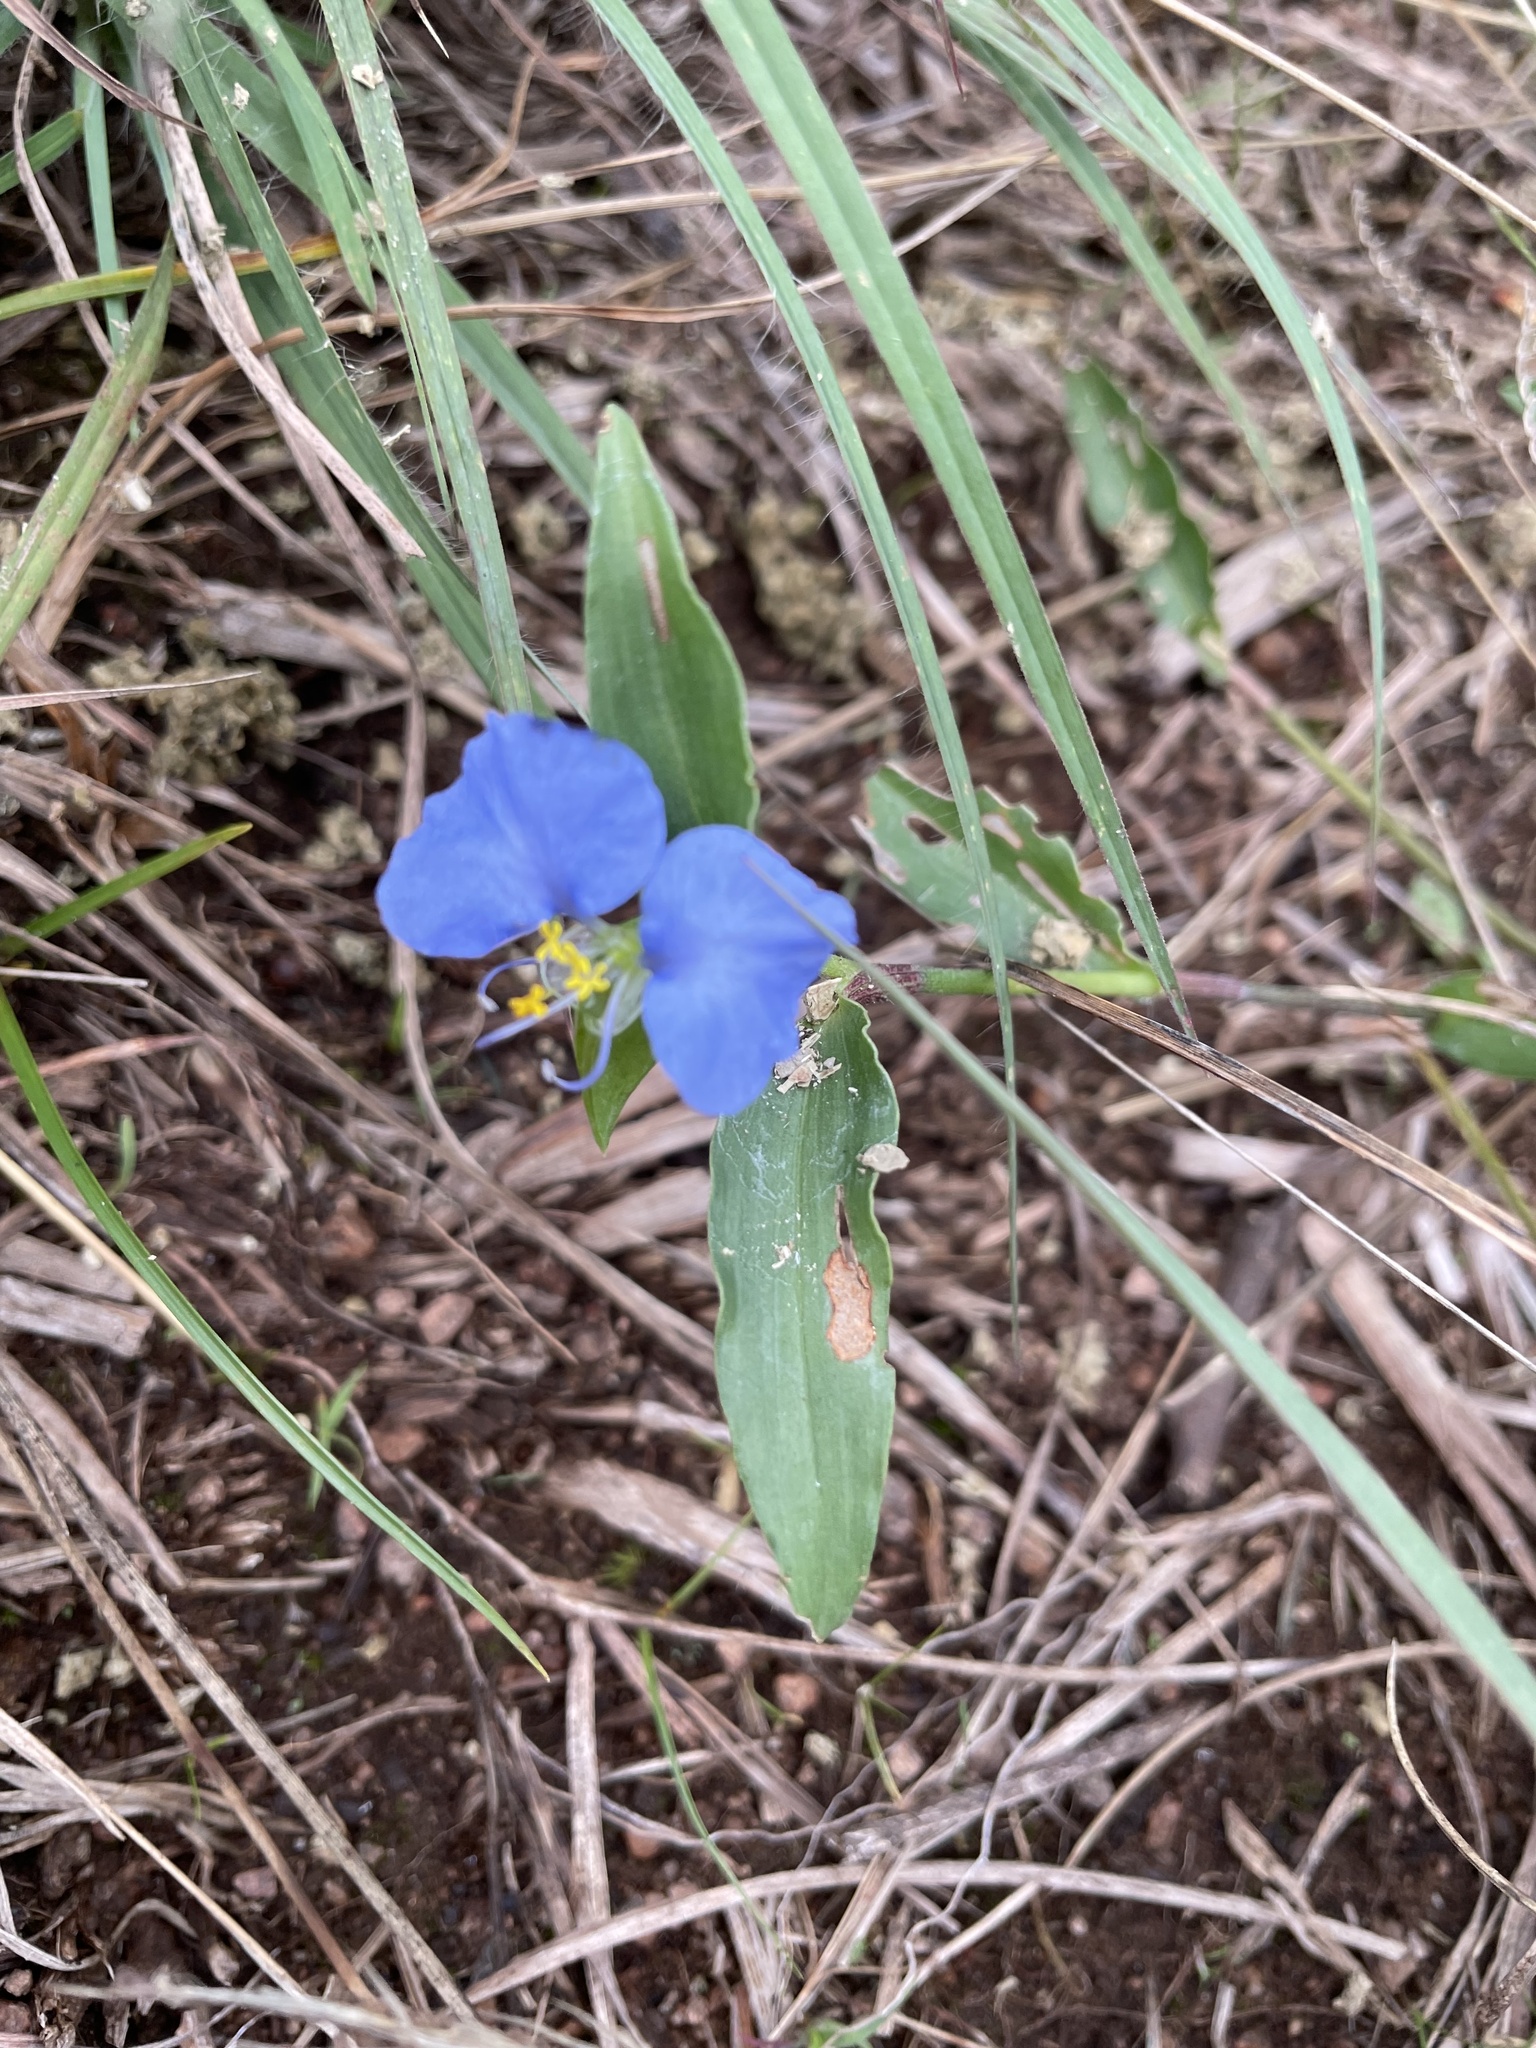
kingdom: Plantae
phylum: Tracheophyta
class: Liliopsida
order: Commelinales
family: Commelinaceae
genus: Commelina
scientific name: Commelina erecta
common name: Blousel blommetjie
